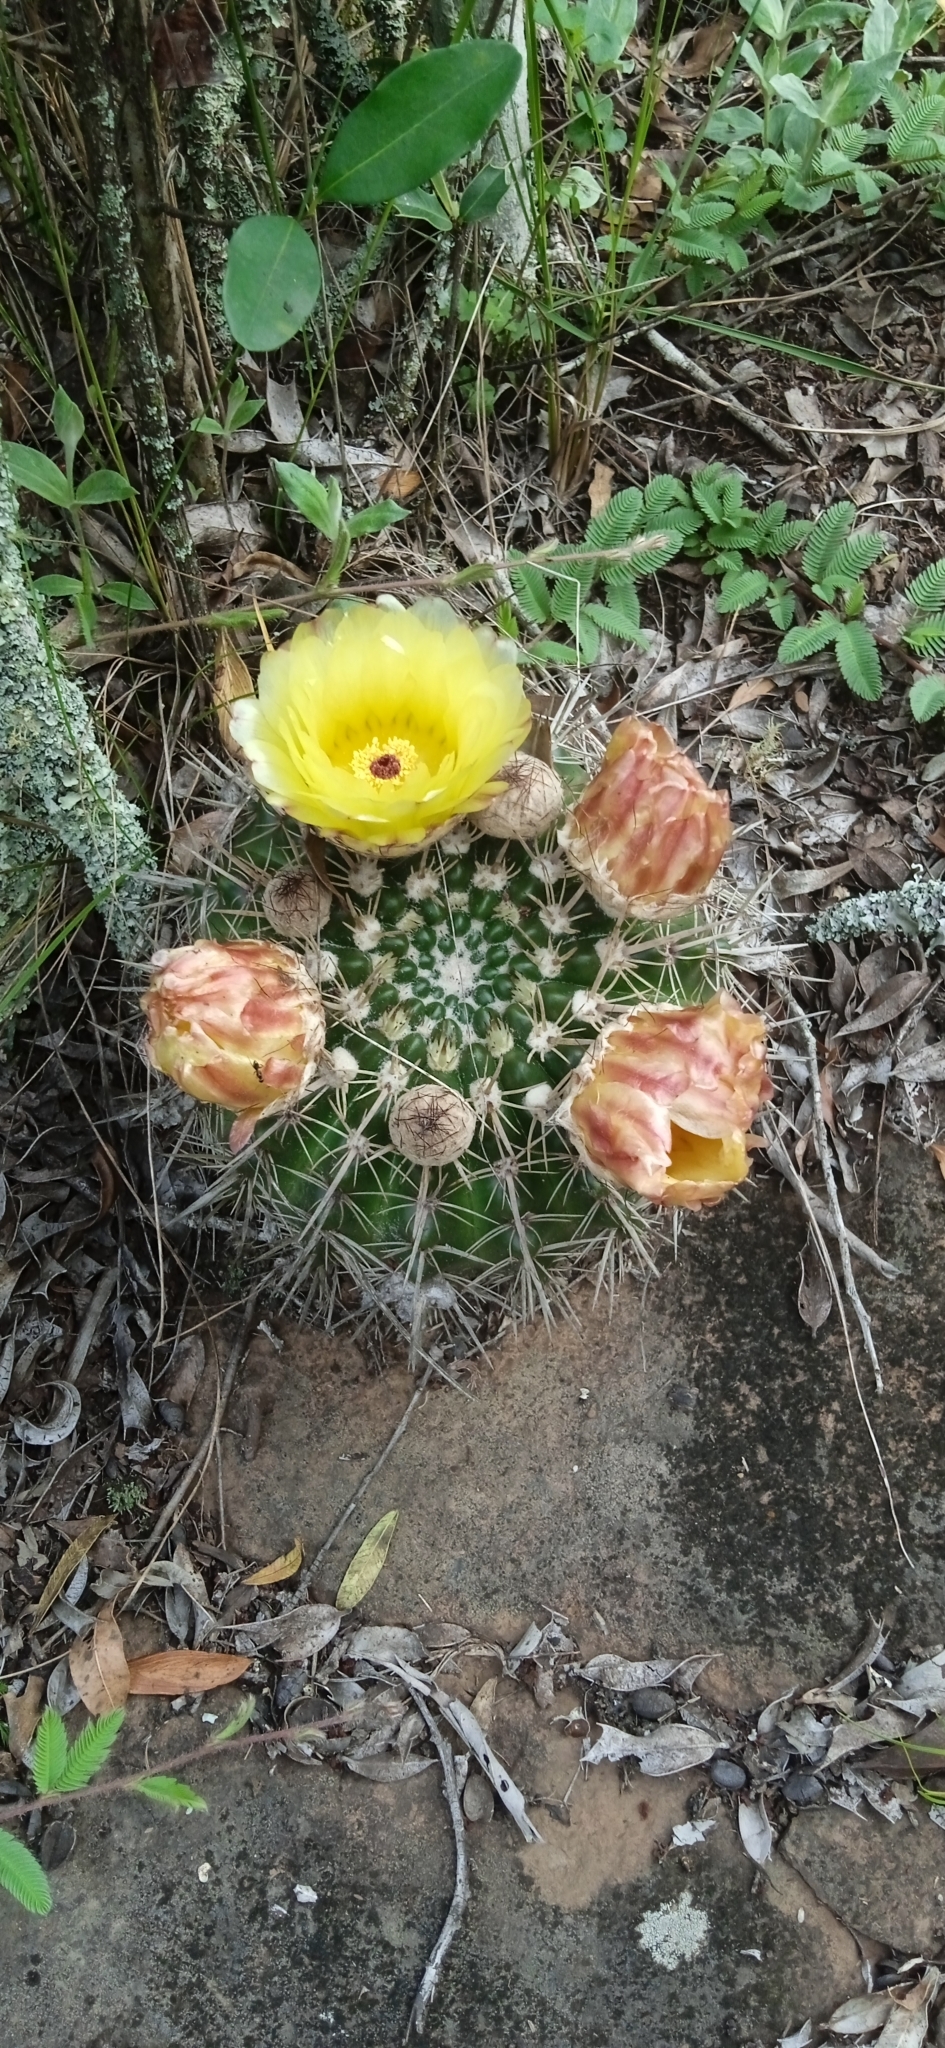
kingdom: Plantae
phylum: Tracheophyta
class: Magnoliopsida
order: Caryophyllales
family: Cactaceae
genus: Parodia
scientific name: Parodia mammulosa
